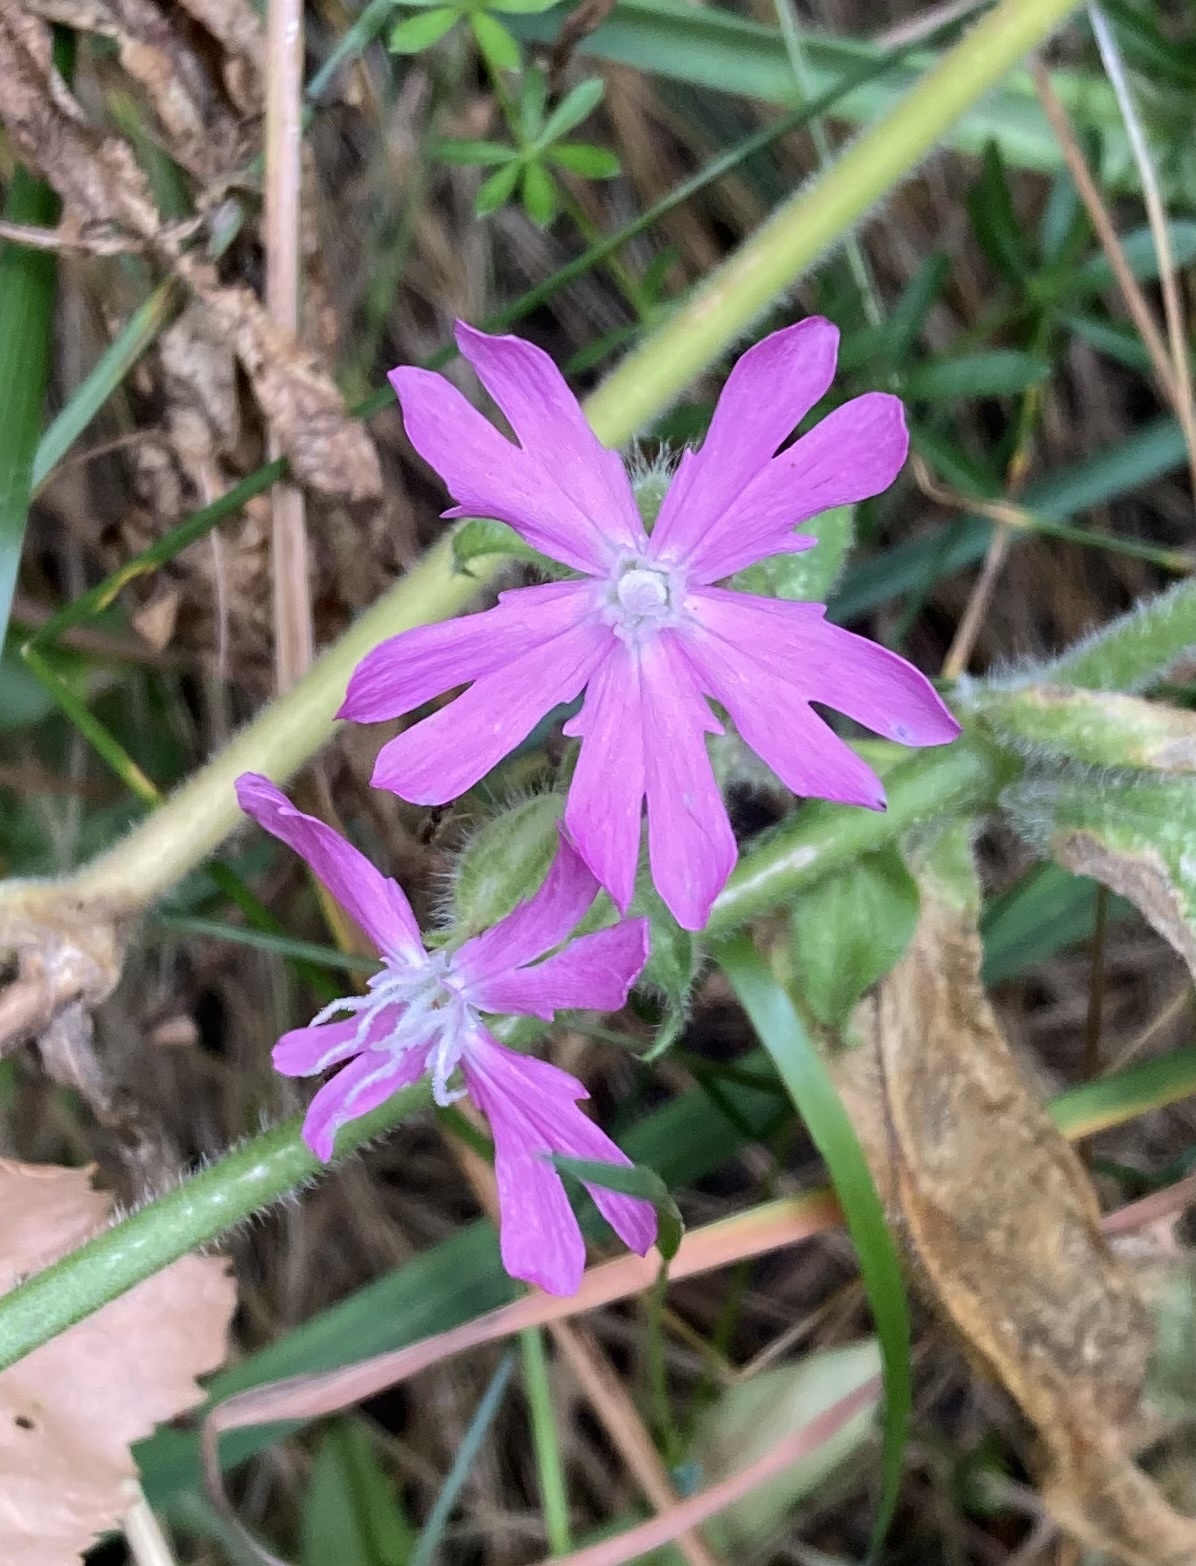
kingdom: Plantae
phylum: Tracheophyta
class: Magnoliopsida
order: Caryophyllales
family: Caryophyllaceae
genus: Silene
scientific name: Silene dioica
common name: Red campion
